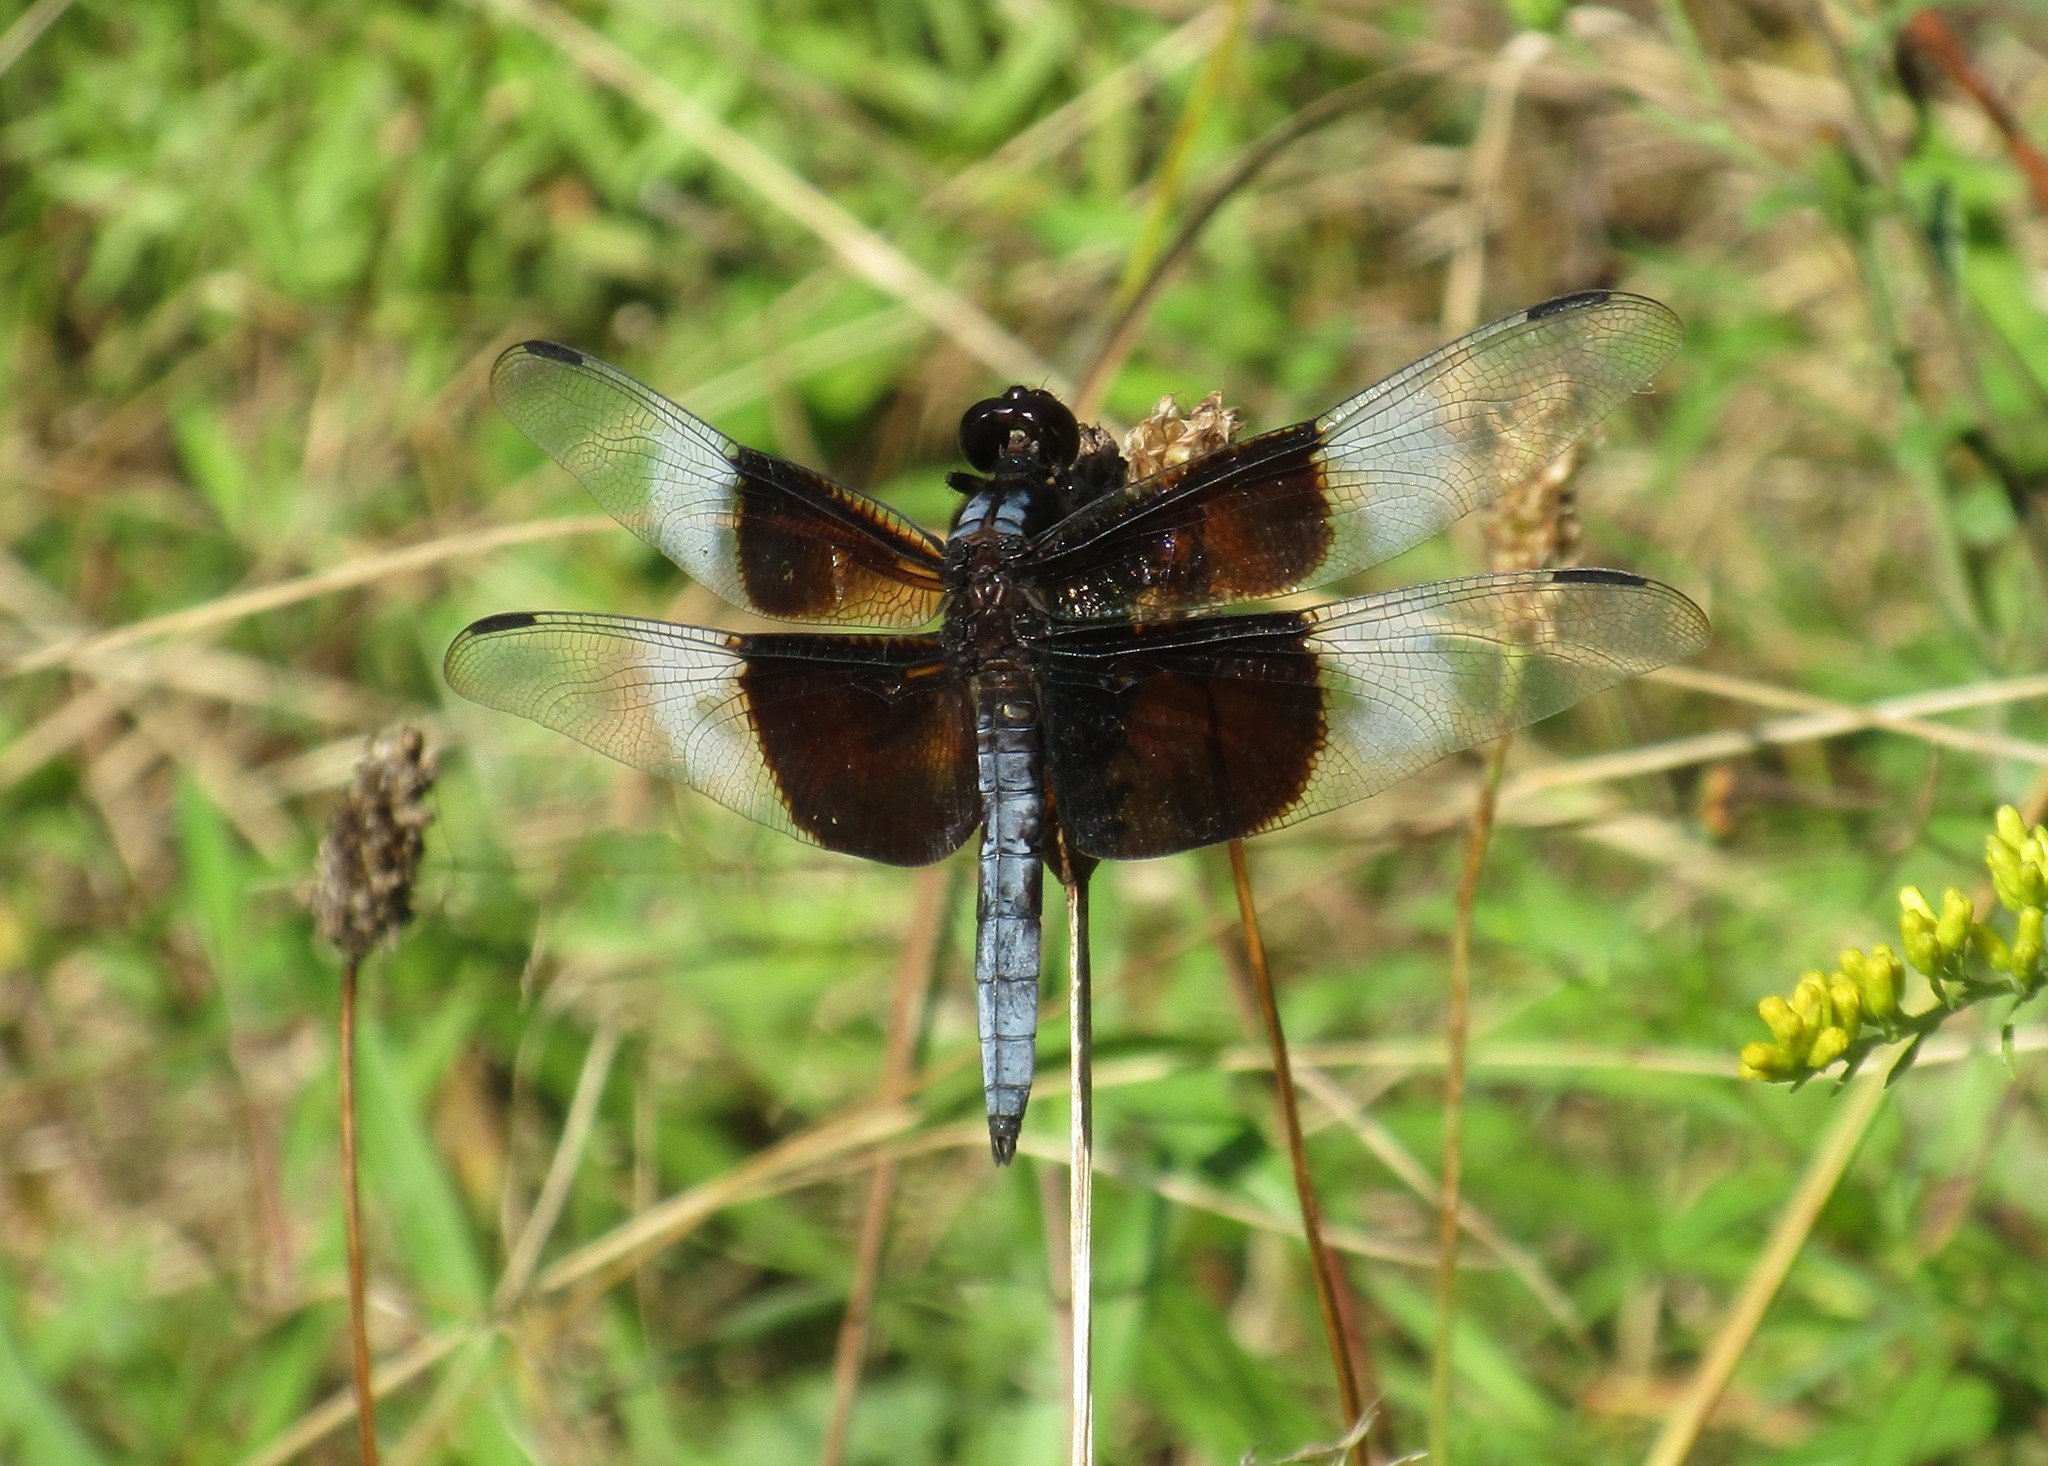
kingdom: Animalia
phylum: Arthropoda
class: Insecta
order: Odonata
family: Libellulidae
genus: Libellula
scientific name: Libellula luctuosa
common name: Widow skimmer
